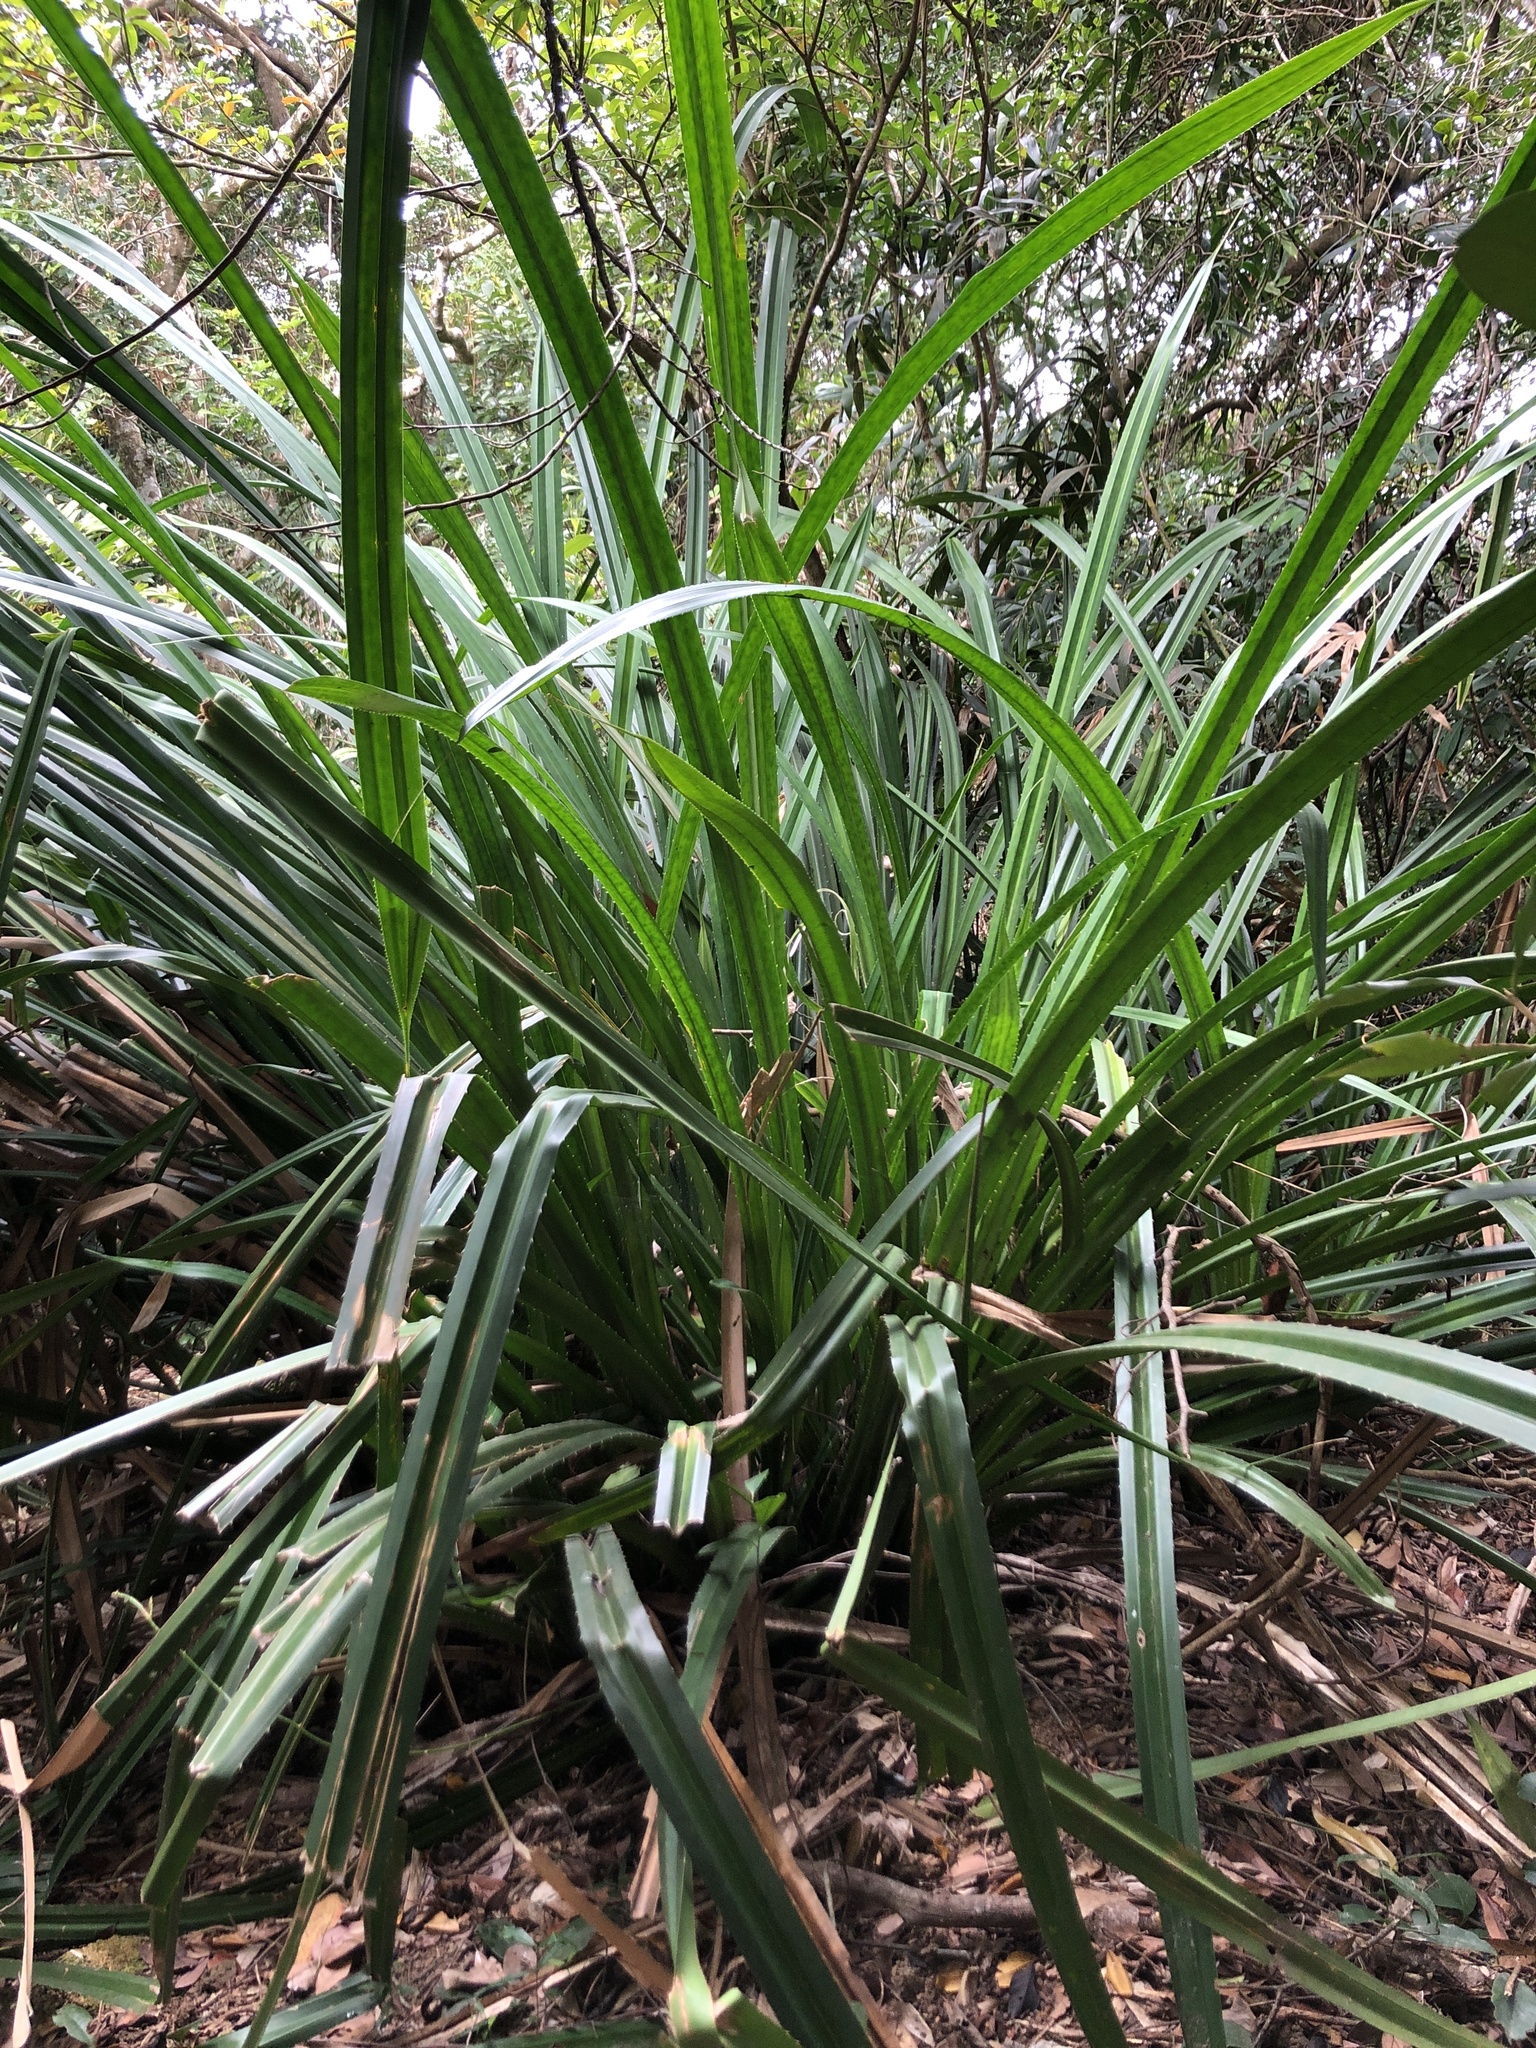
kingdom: Plantae
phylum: Tracheophyta
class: Liliopsida
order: Pandanales
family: Pandanaceae
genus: Pandanus
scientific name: Pandanus odorifer
